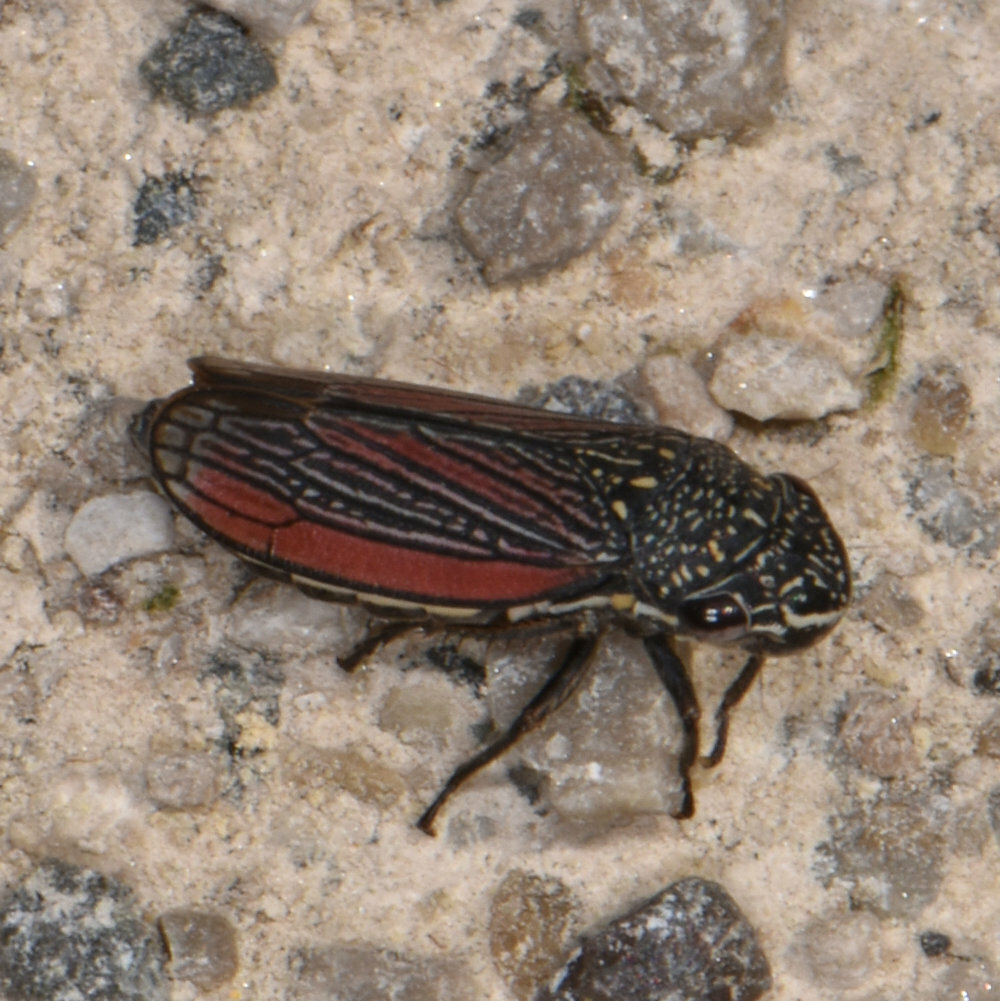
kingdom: Animalia
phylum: Arthropoda
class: Insecta
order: Hemiptera
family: Cicadellidae
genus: Cuerna
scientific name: Cuerna striata
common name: Striped leafhopper
